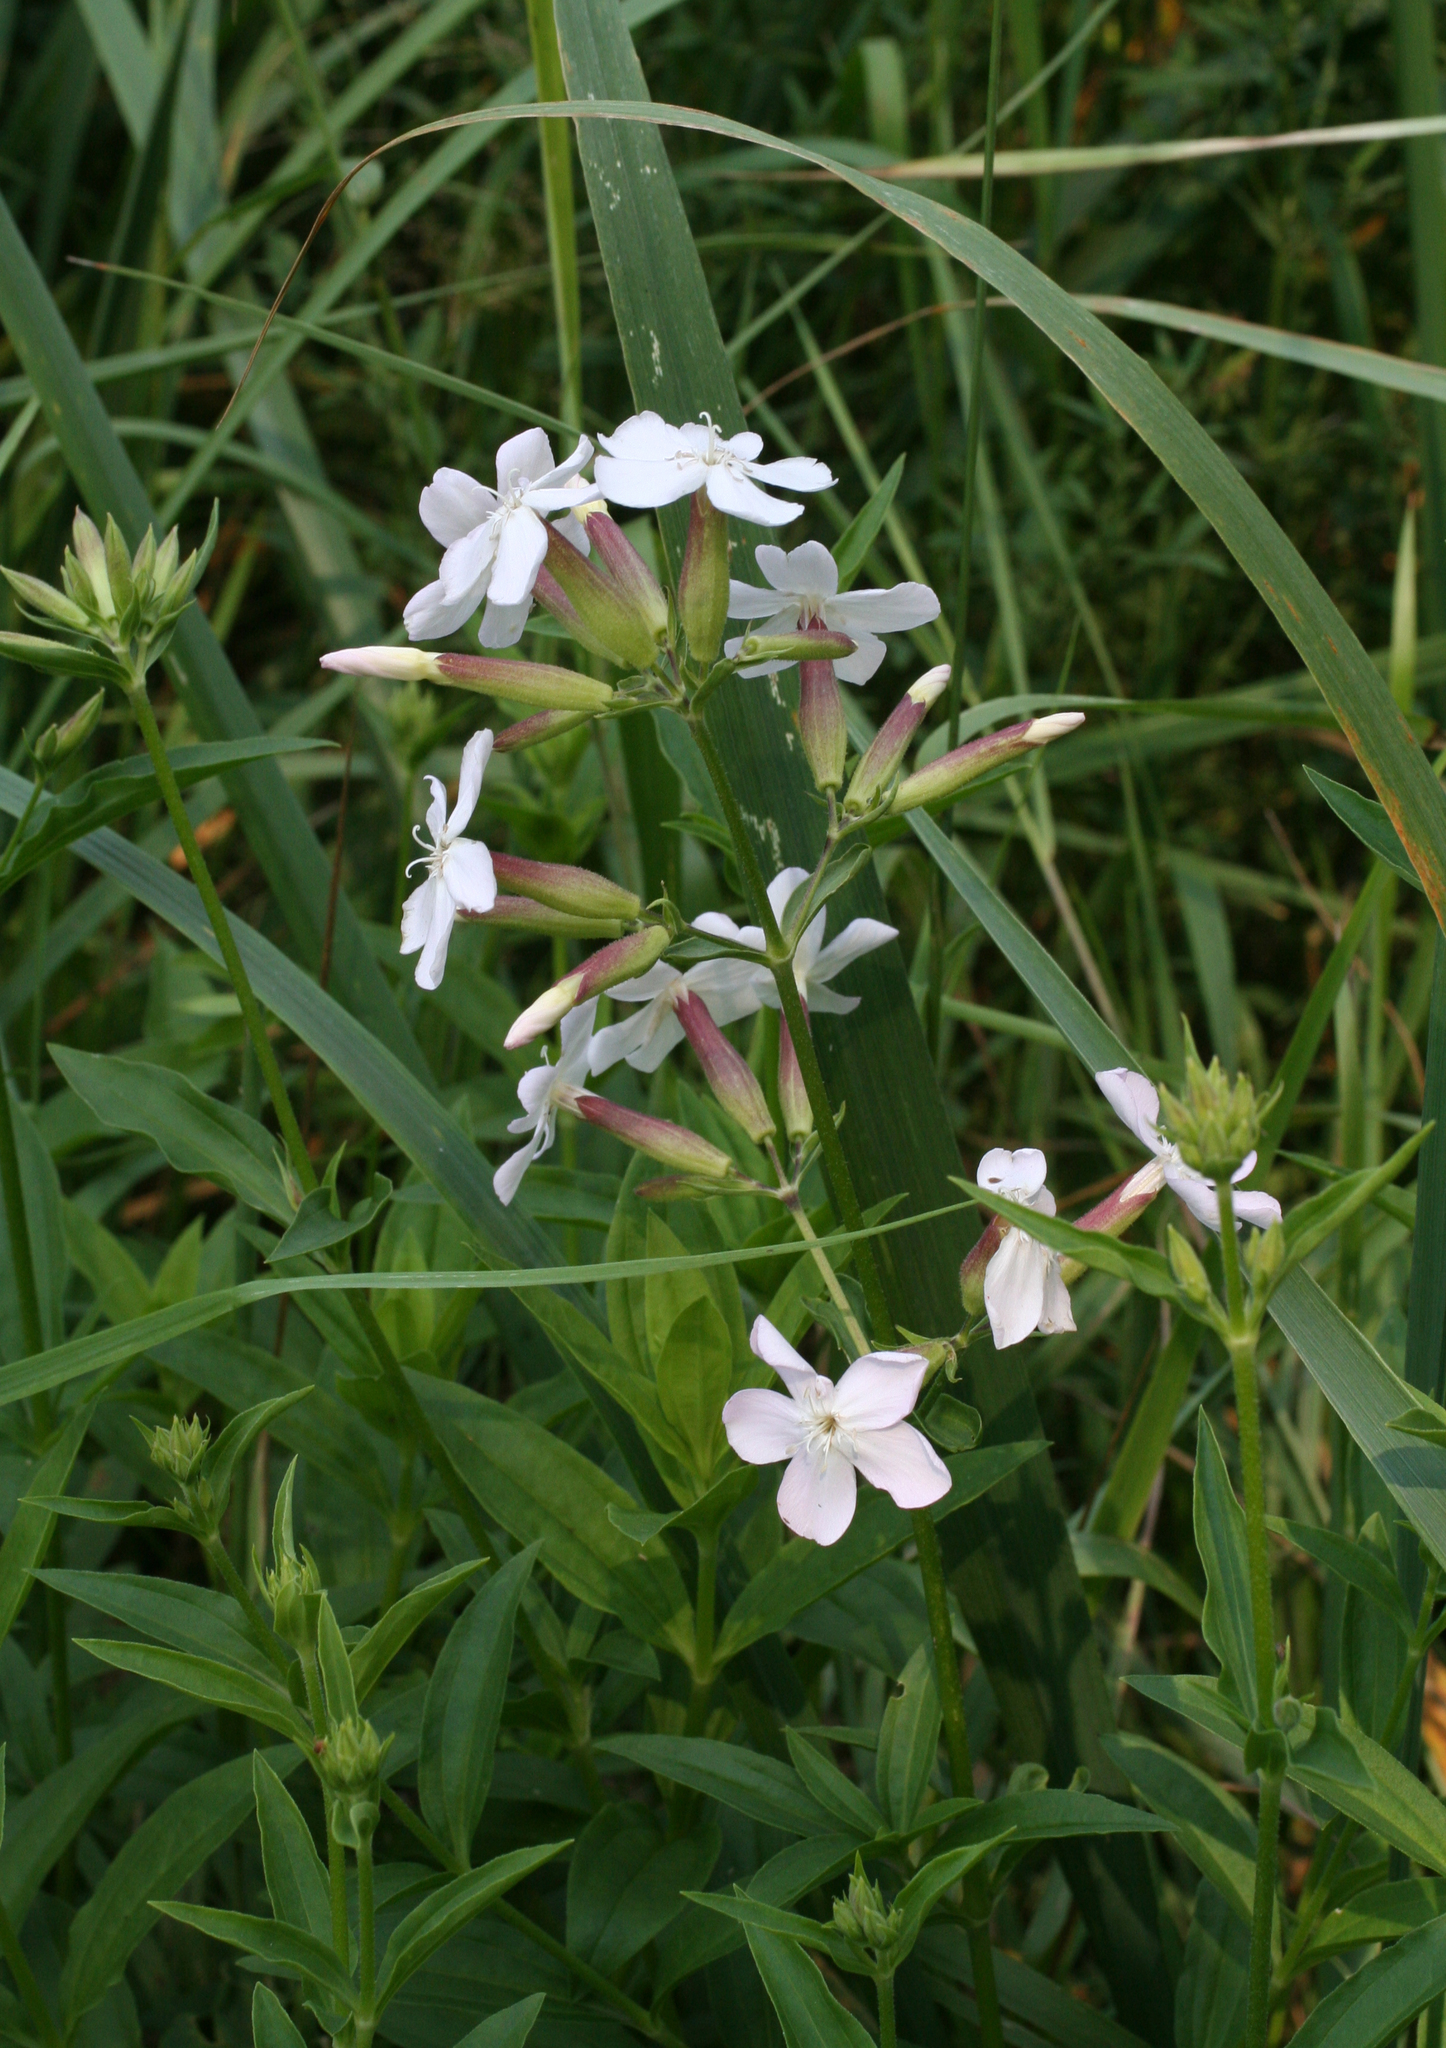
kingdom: Plantae
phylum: Tracheophyta
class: Magnoliopsida
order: Caryophyllales
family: Caryophyllaceae
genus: Saponaria
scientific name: Saponaria officinalis
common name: Soapwort
